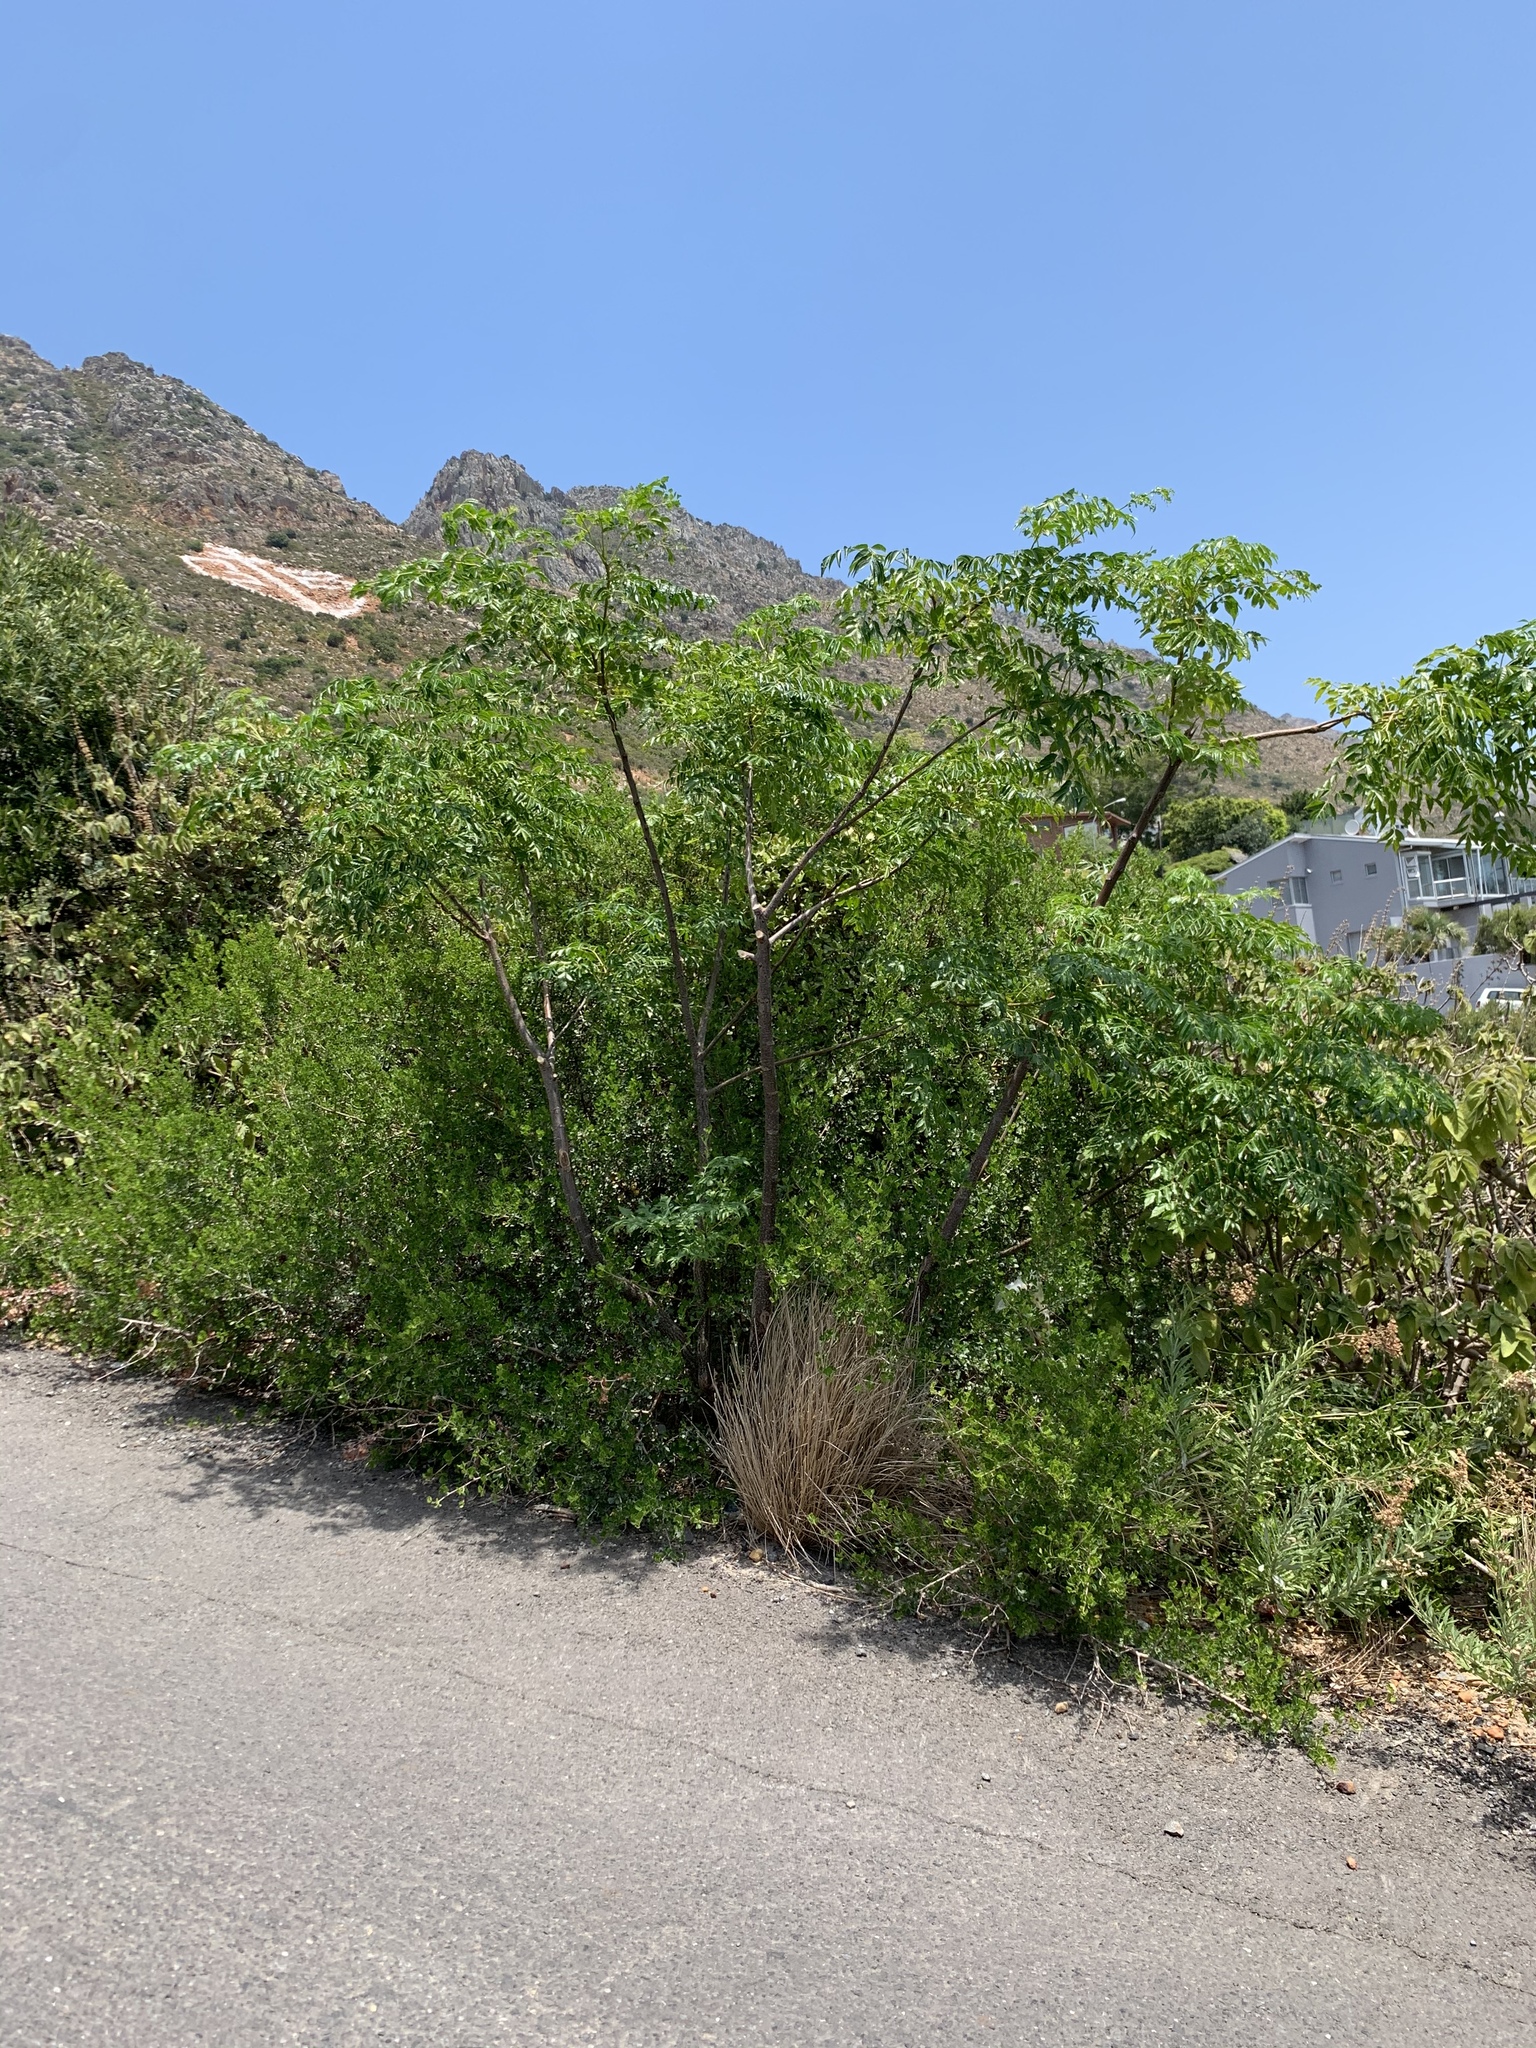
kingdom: Plantae
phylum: Tracheophyta
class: Magnoliopsida
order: Sapindales
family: Meliaceae
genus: Melia
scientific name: Melia azedarach
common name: Chinaberrytree
